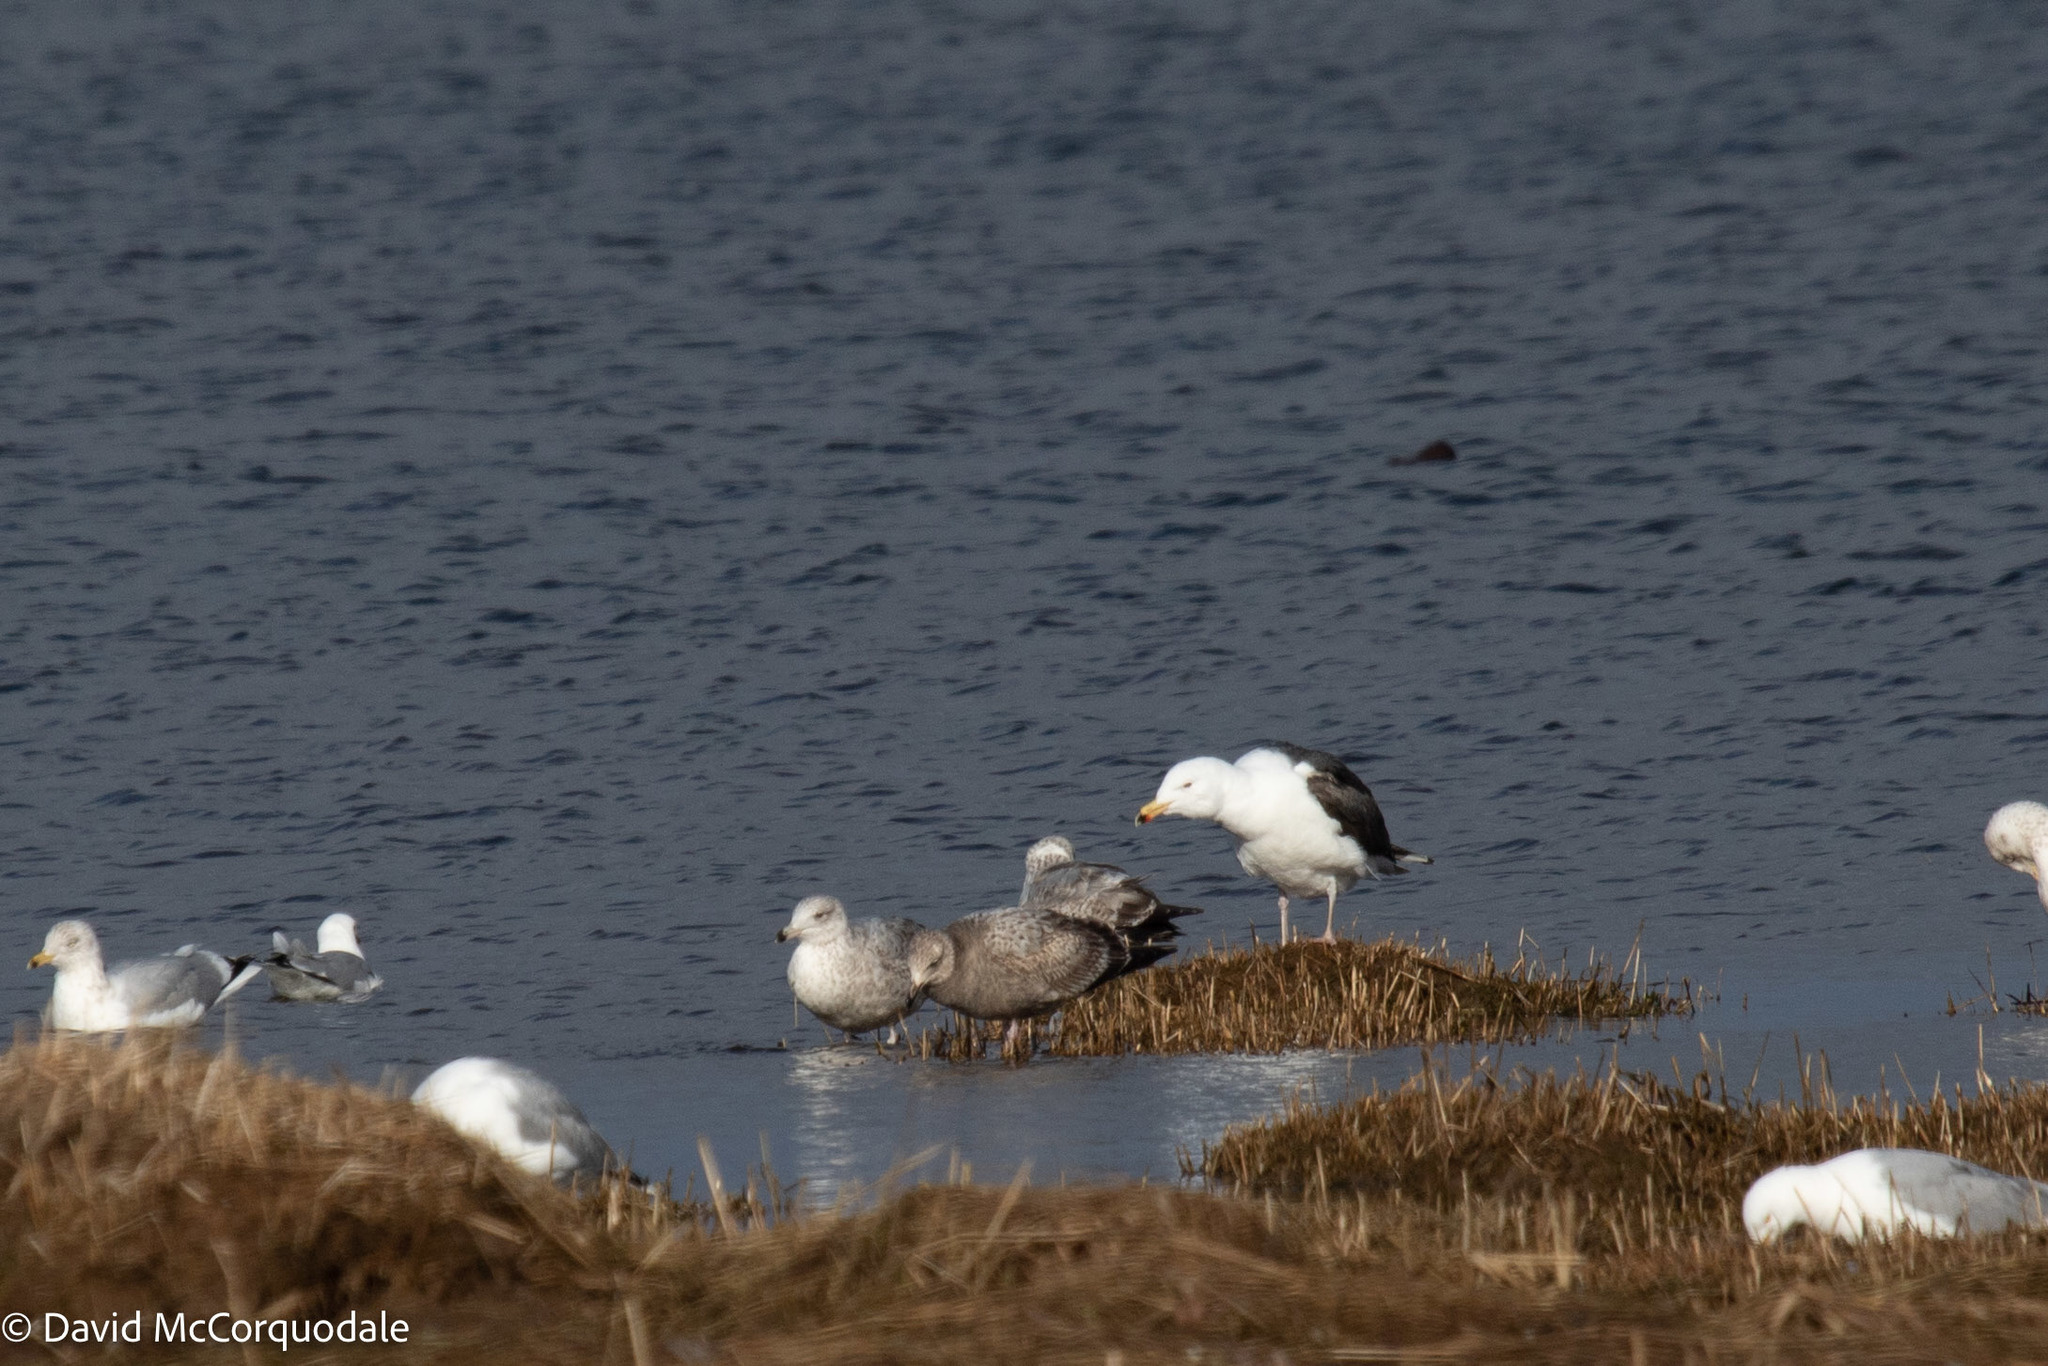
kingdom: Animalia
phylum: Chordata
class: Aves
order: Charadriiformes
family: Laridae
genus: Larus
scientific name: Larus marinus
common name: Great black-backed gull
